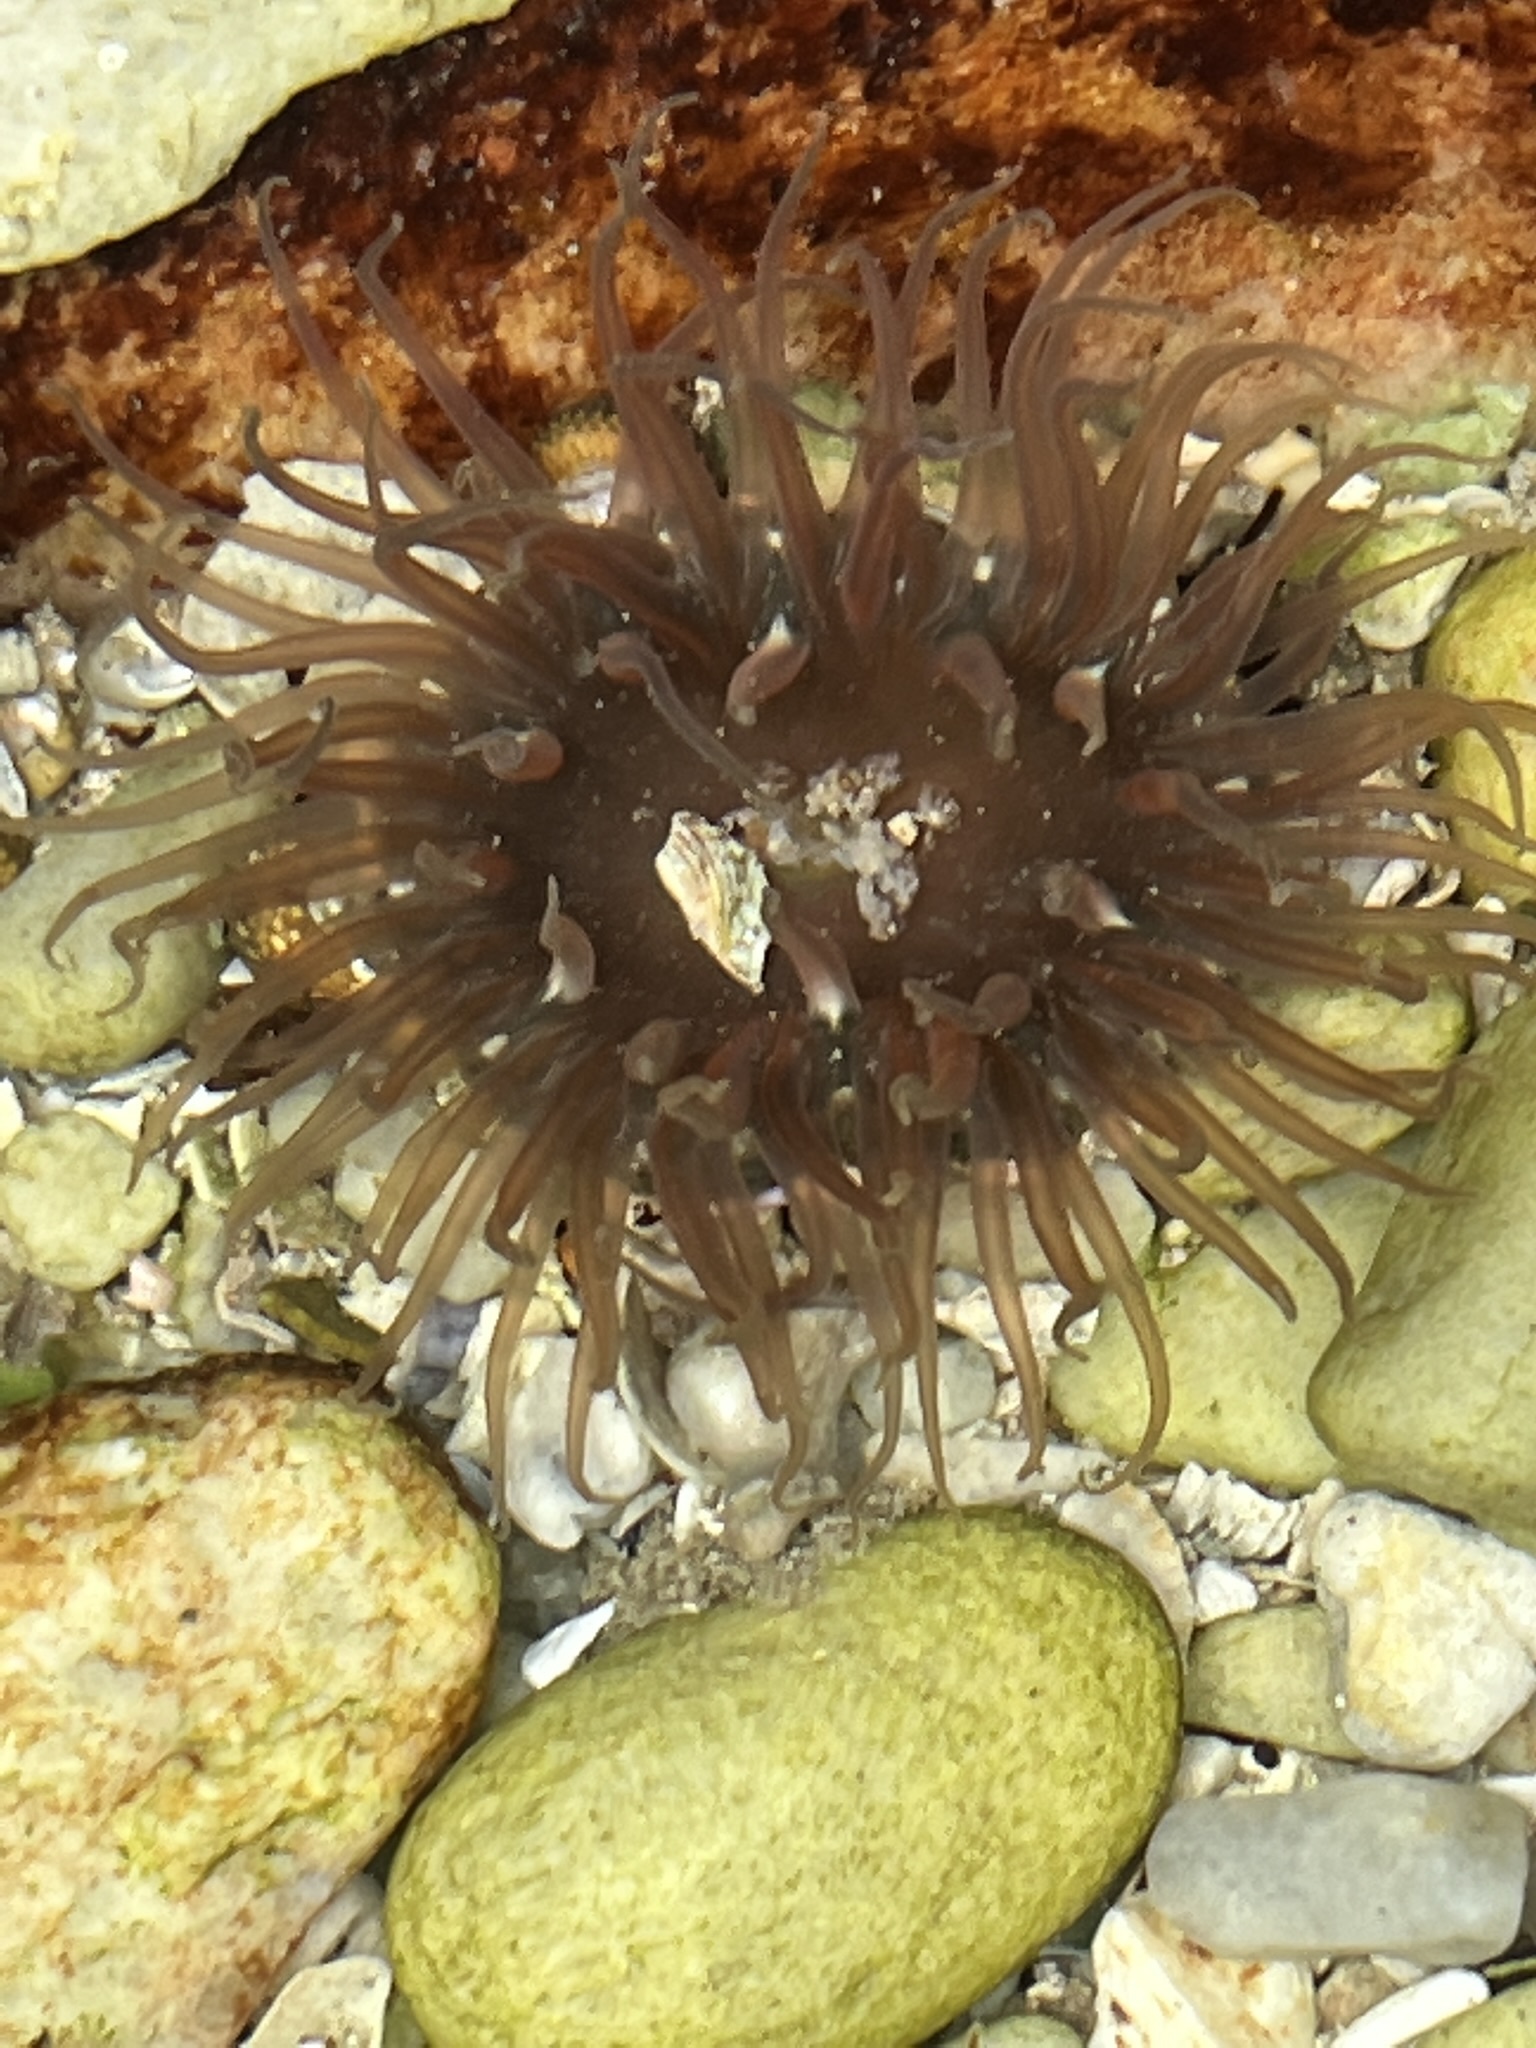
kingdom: Animalia
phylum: Cnidaria
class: Anthozoa
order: Actiniaria
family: Actiniidae
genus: Anthopleura
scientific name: Anthopleura michaelseni
